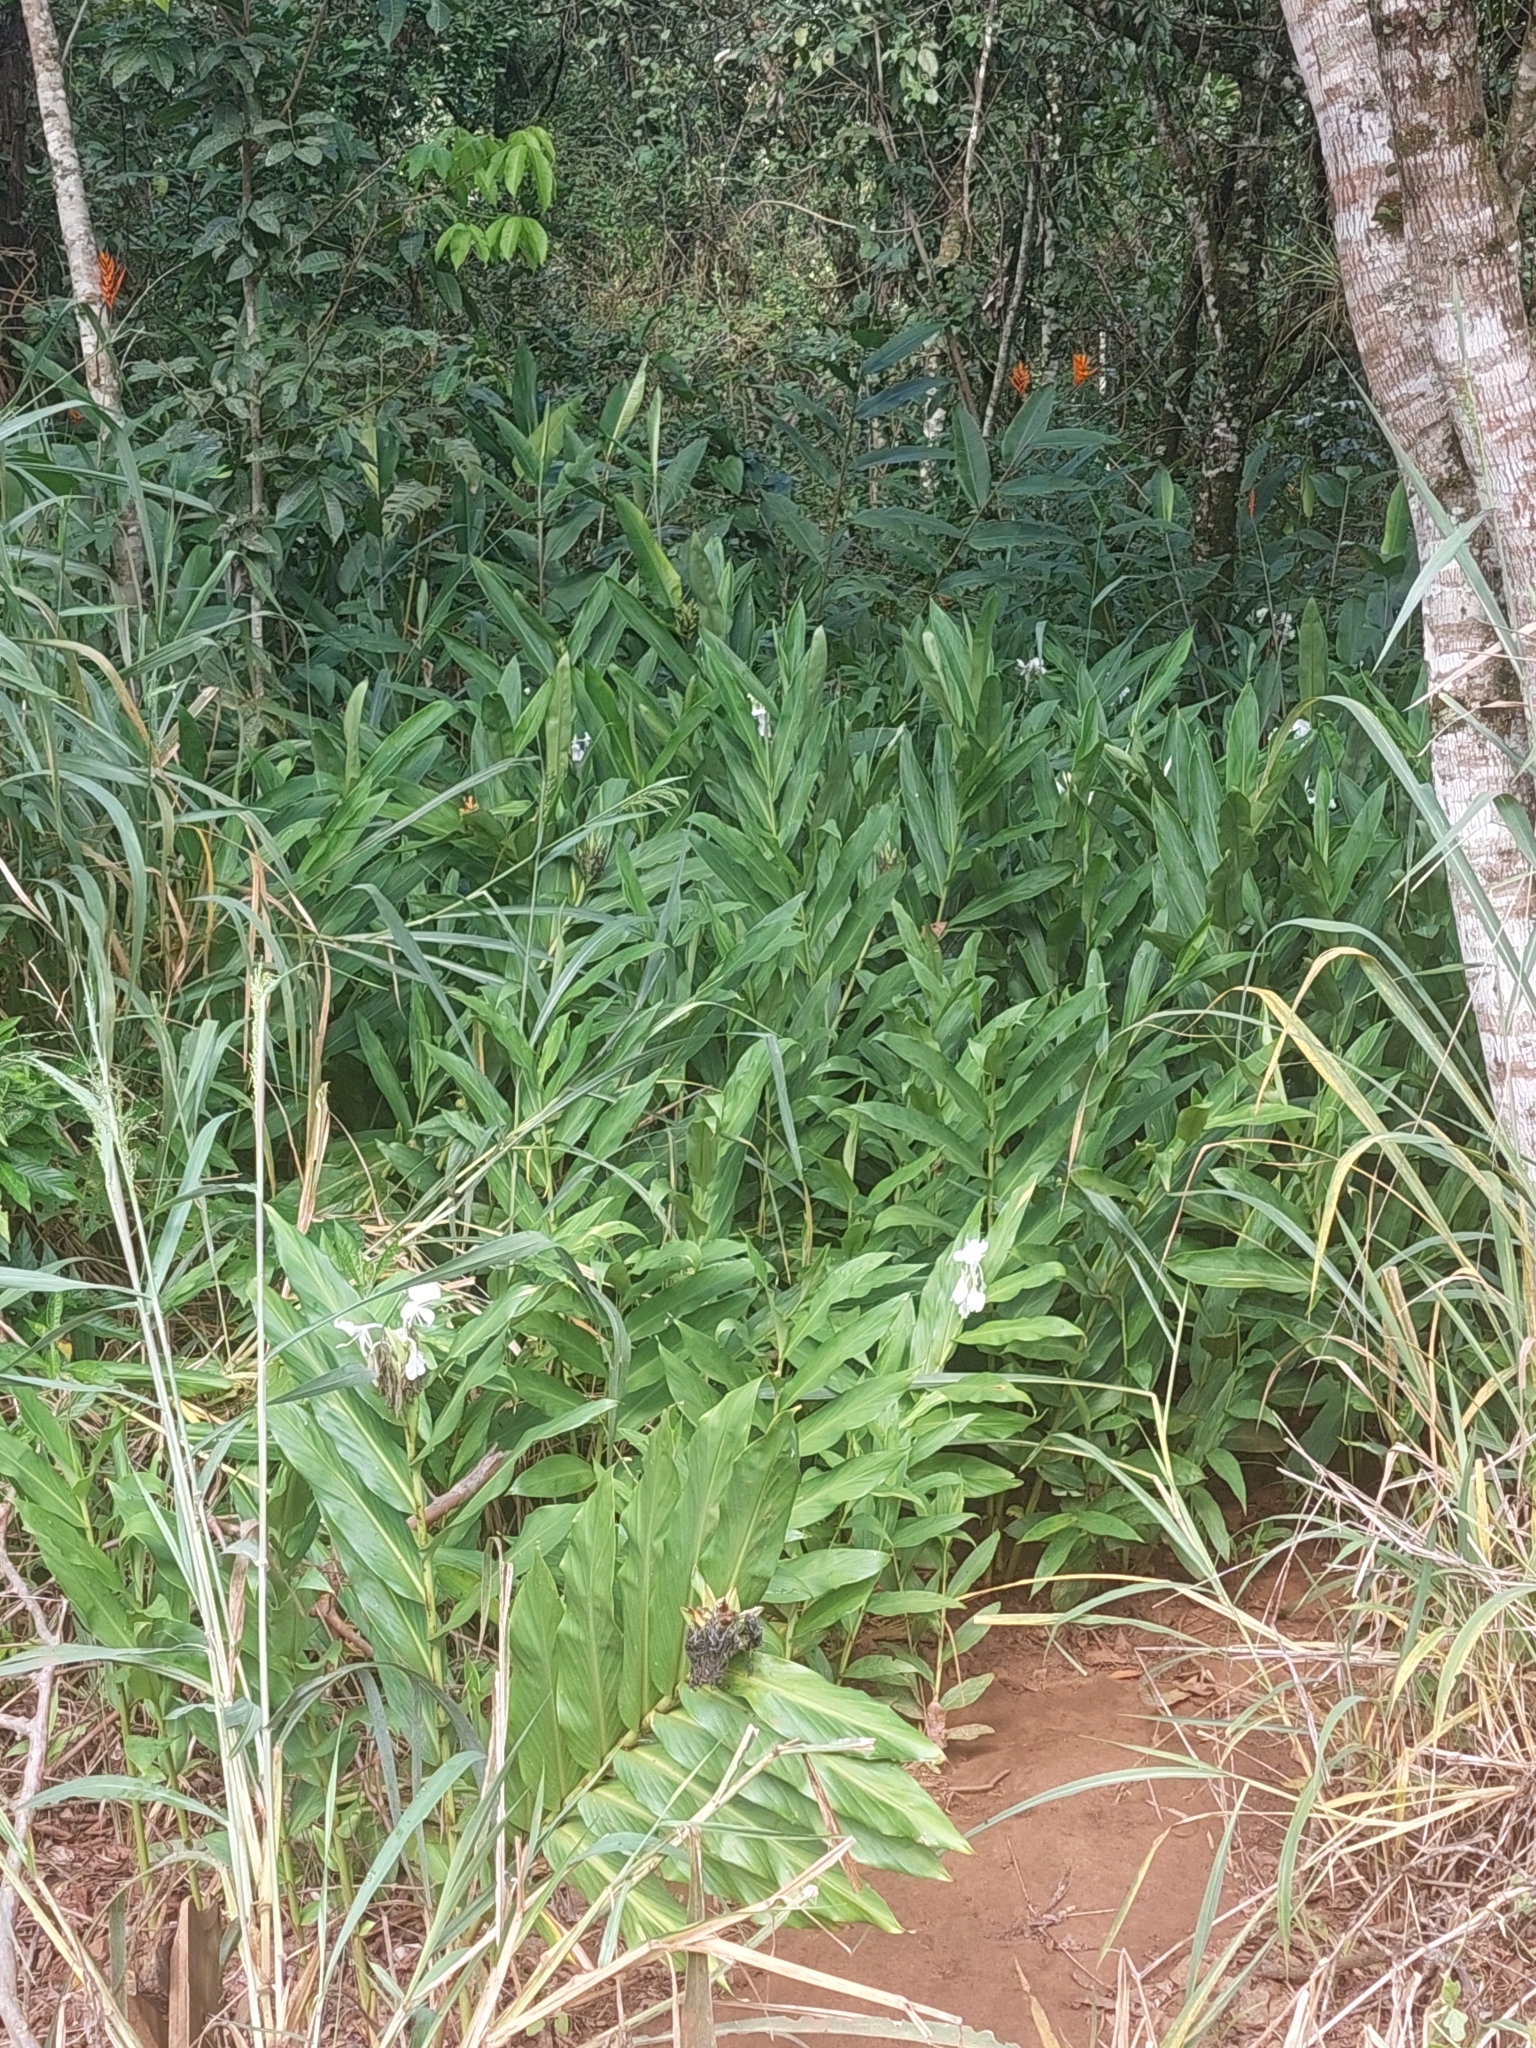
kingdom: Plantae
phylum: Tracheophyta
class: Liliopsida
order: Zingiberales
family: Zingiberaceae
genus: Hedychium
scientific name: Hedychium coronarium
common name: White garland-lily
